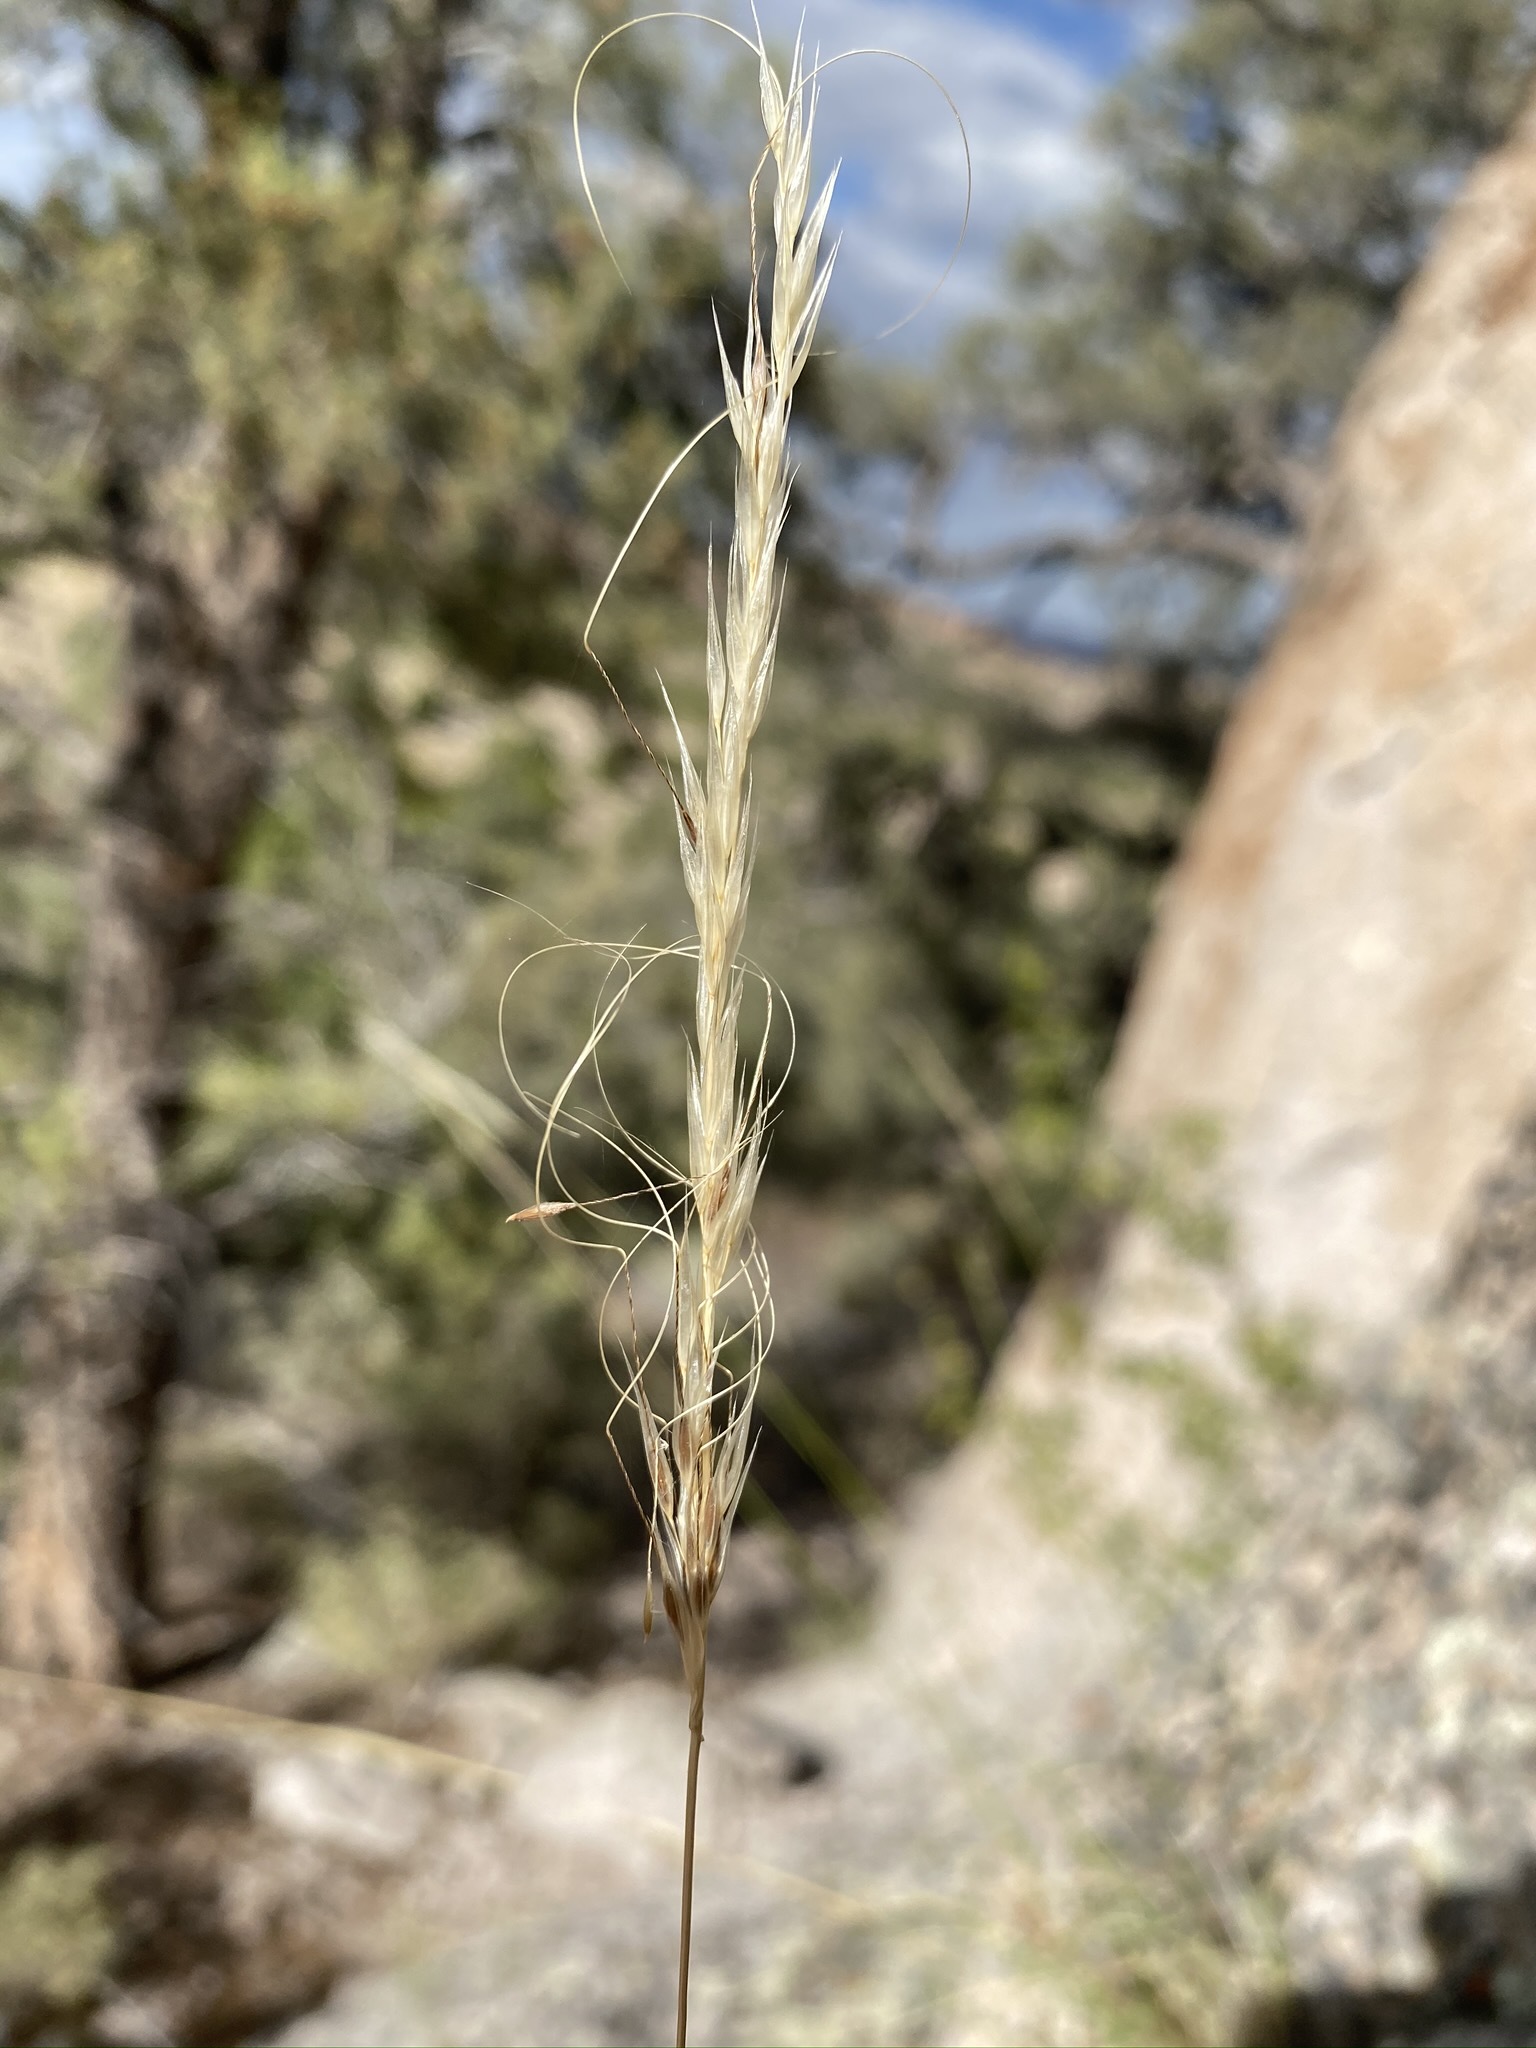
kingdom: Plantae
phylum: Tracheophyta
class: Liliopsida
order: Poales
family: Poaceae
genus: Eriocoma
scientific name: Eriocoma arida
